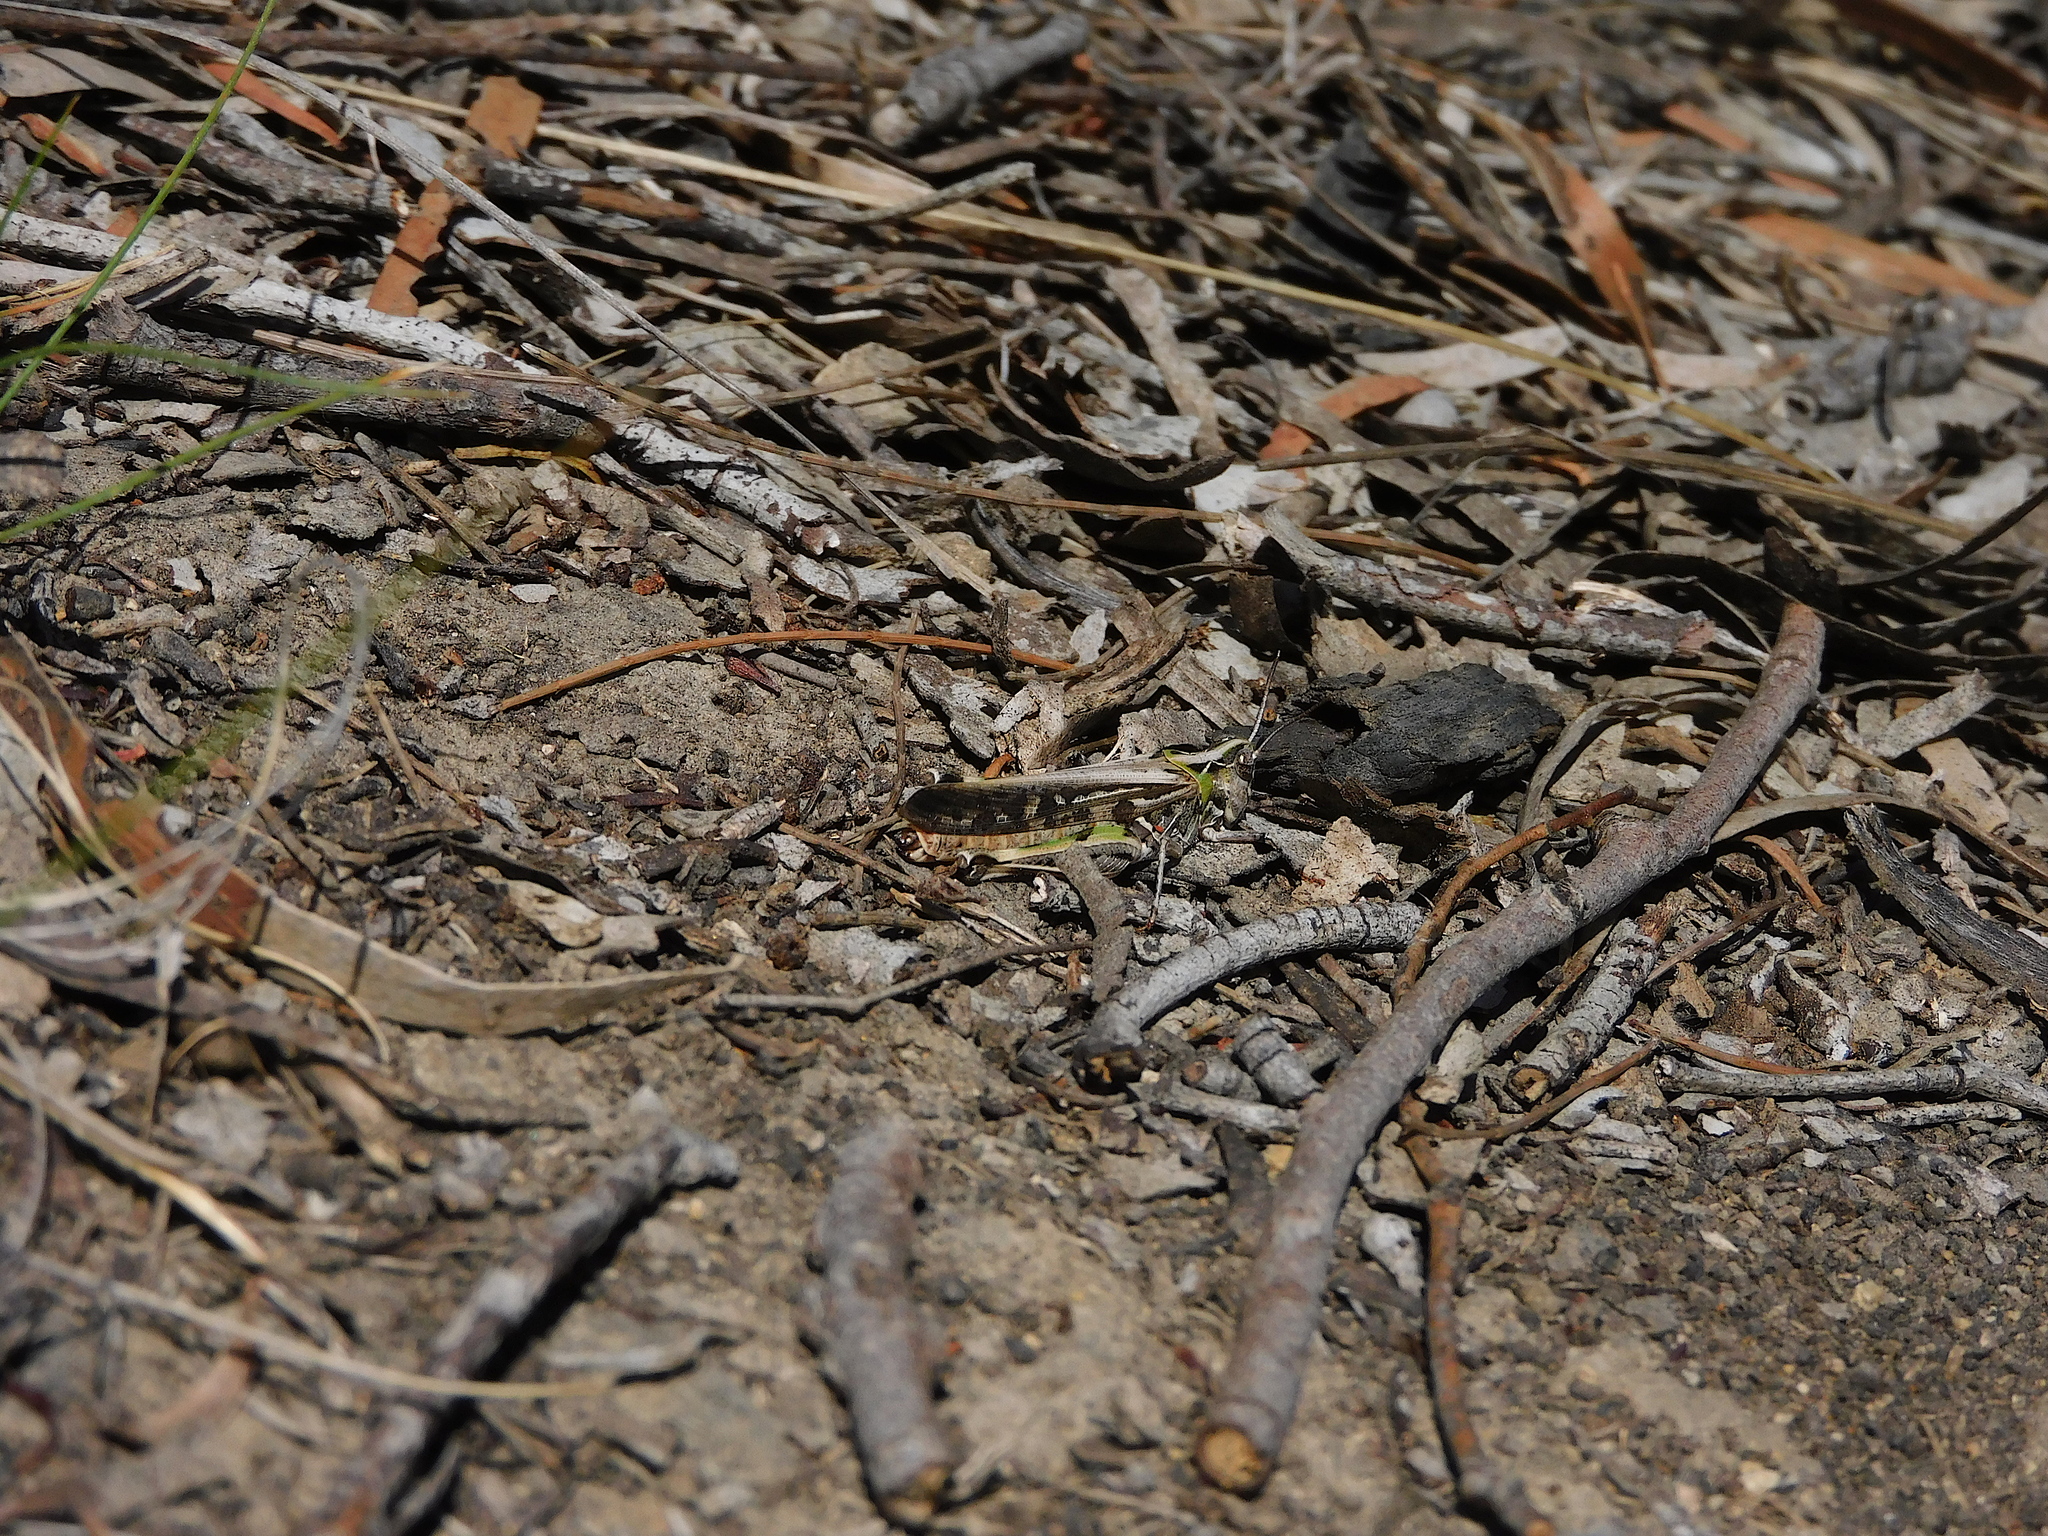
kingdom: Animalia
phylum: Arthropoda
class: Insecta
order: Orthoptera
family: Acrididae
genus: Austroicetes
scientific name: Austroicetes vulgaris
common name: Southeastern austroicetes
